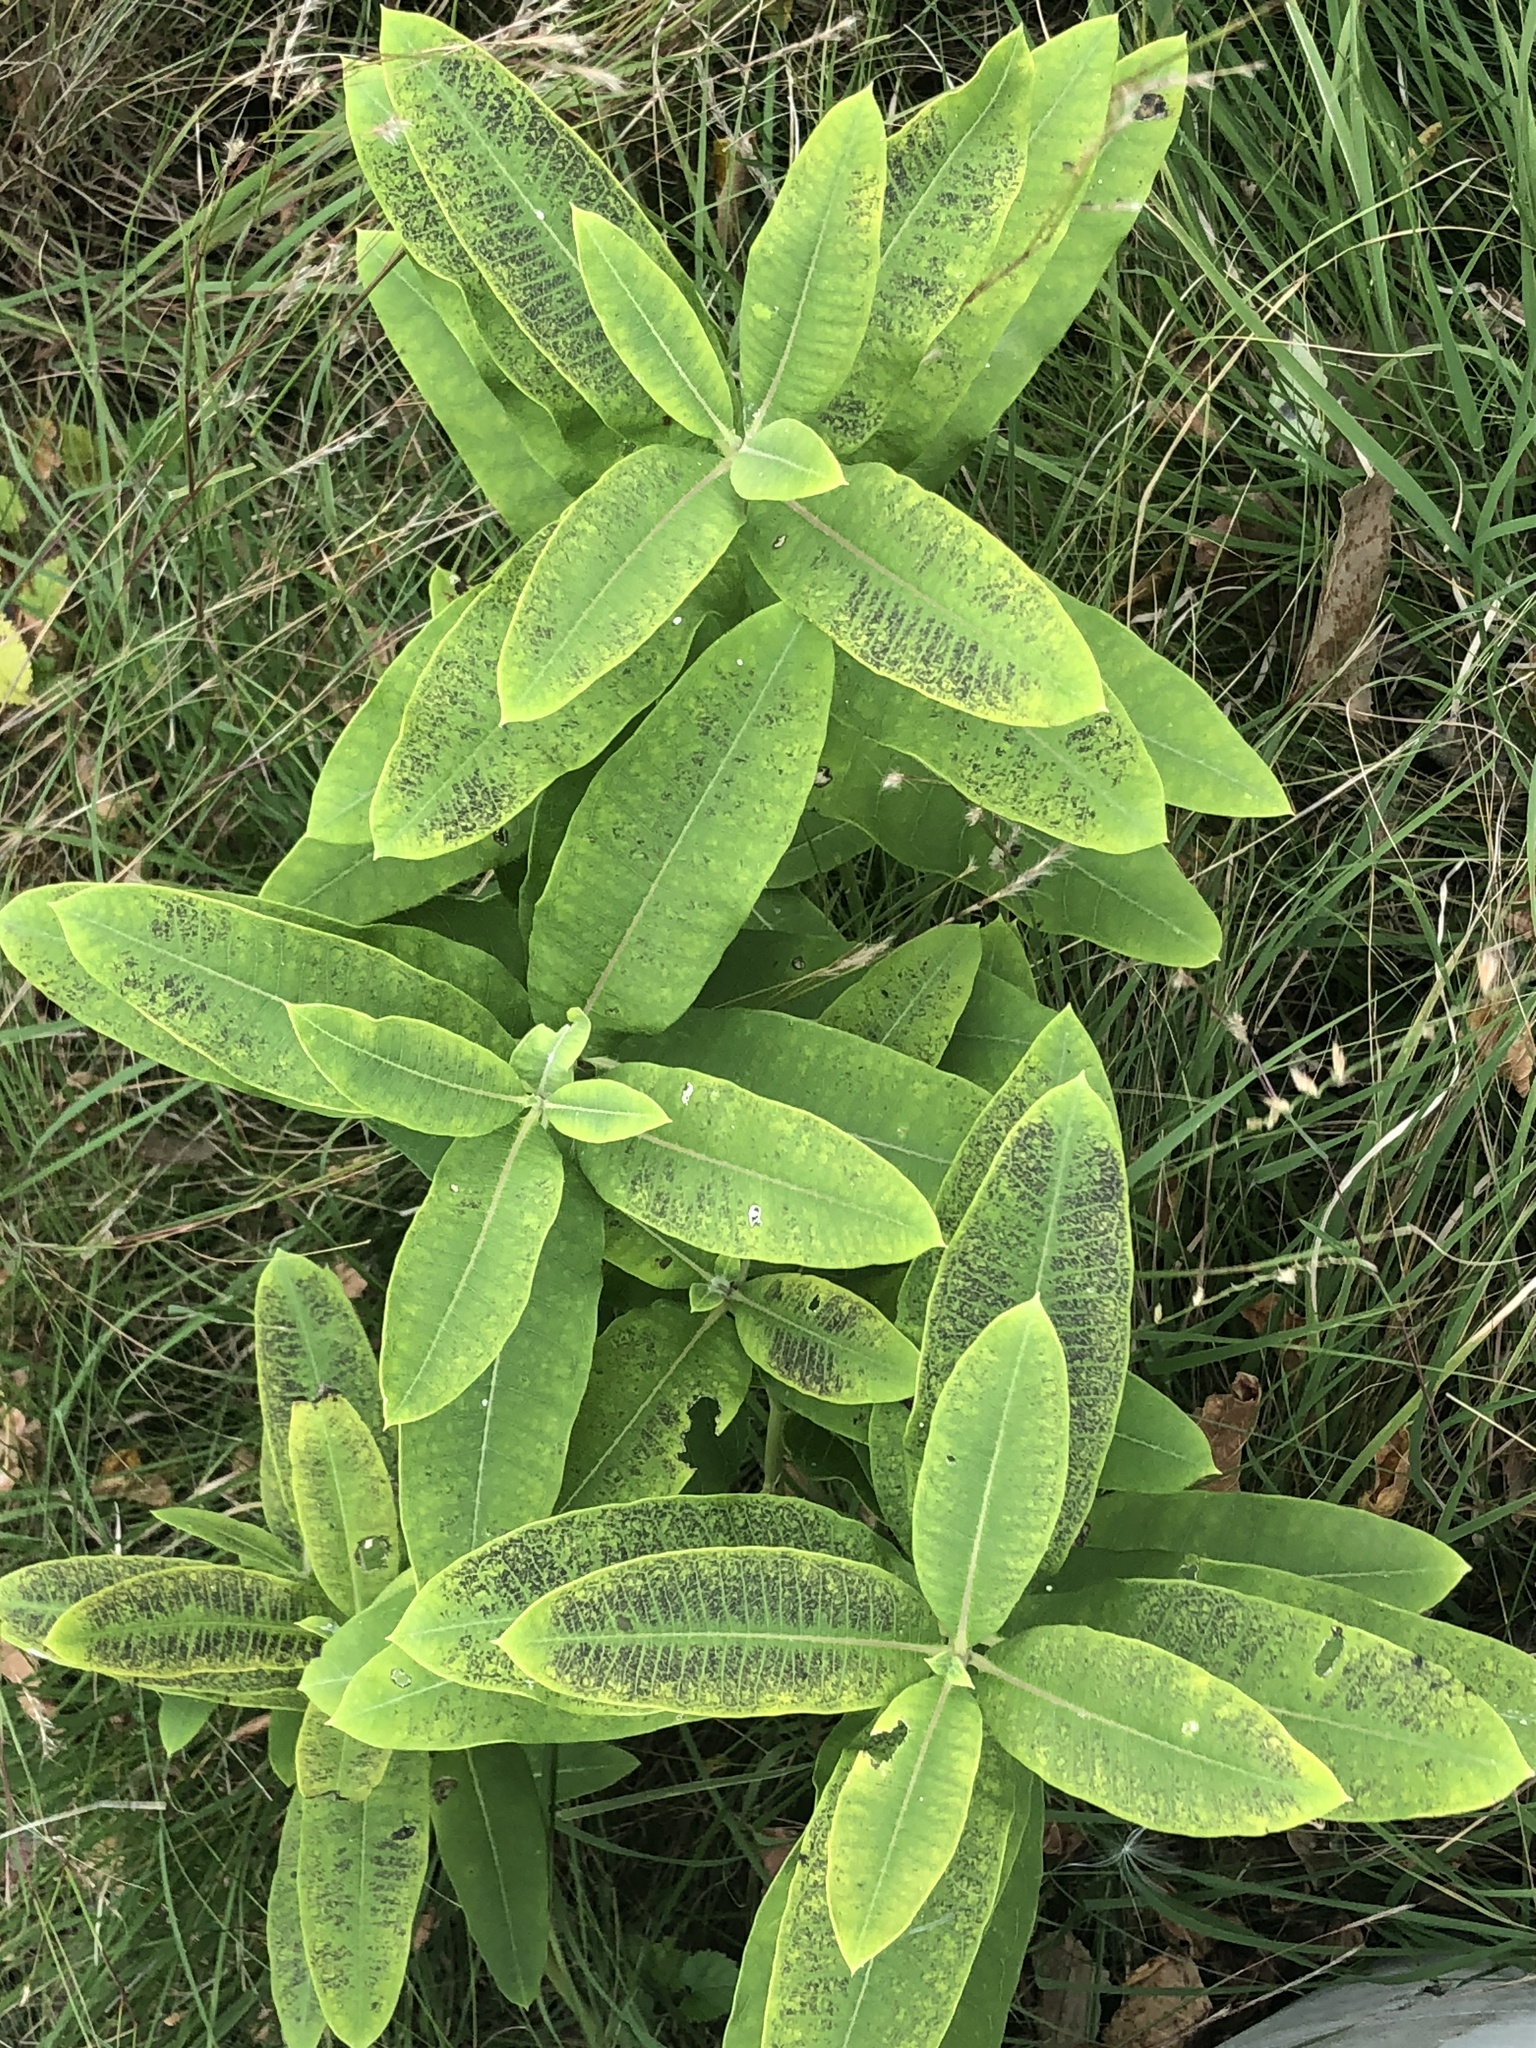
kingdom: Plantae
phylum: Tracheophyta
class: Magnoliopsida
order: Gentianales
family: Apocynaceae
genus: Asclepias
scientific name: Asclepias syriaca
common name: Common milkweed
